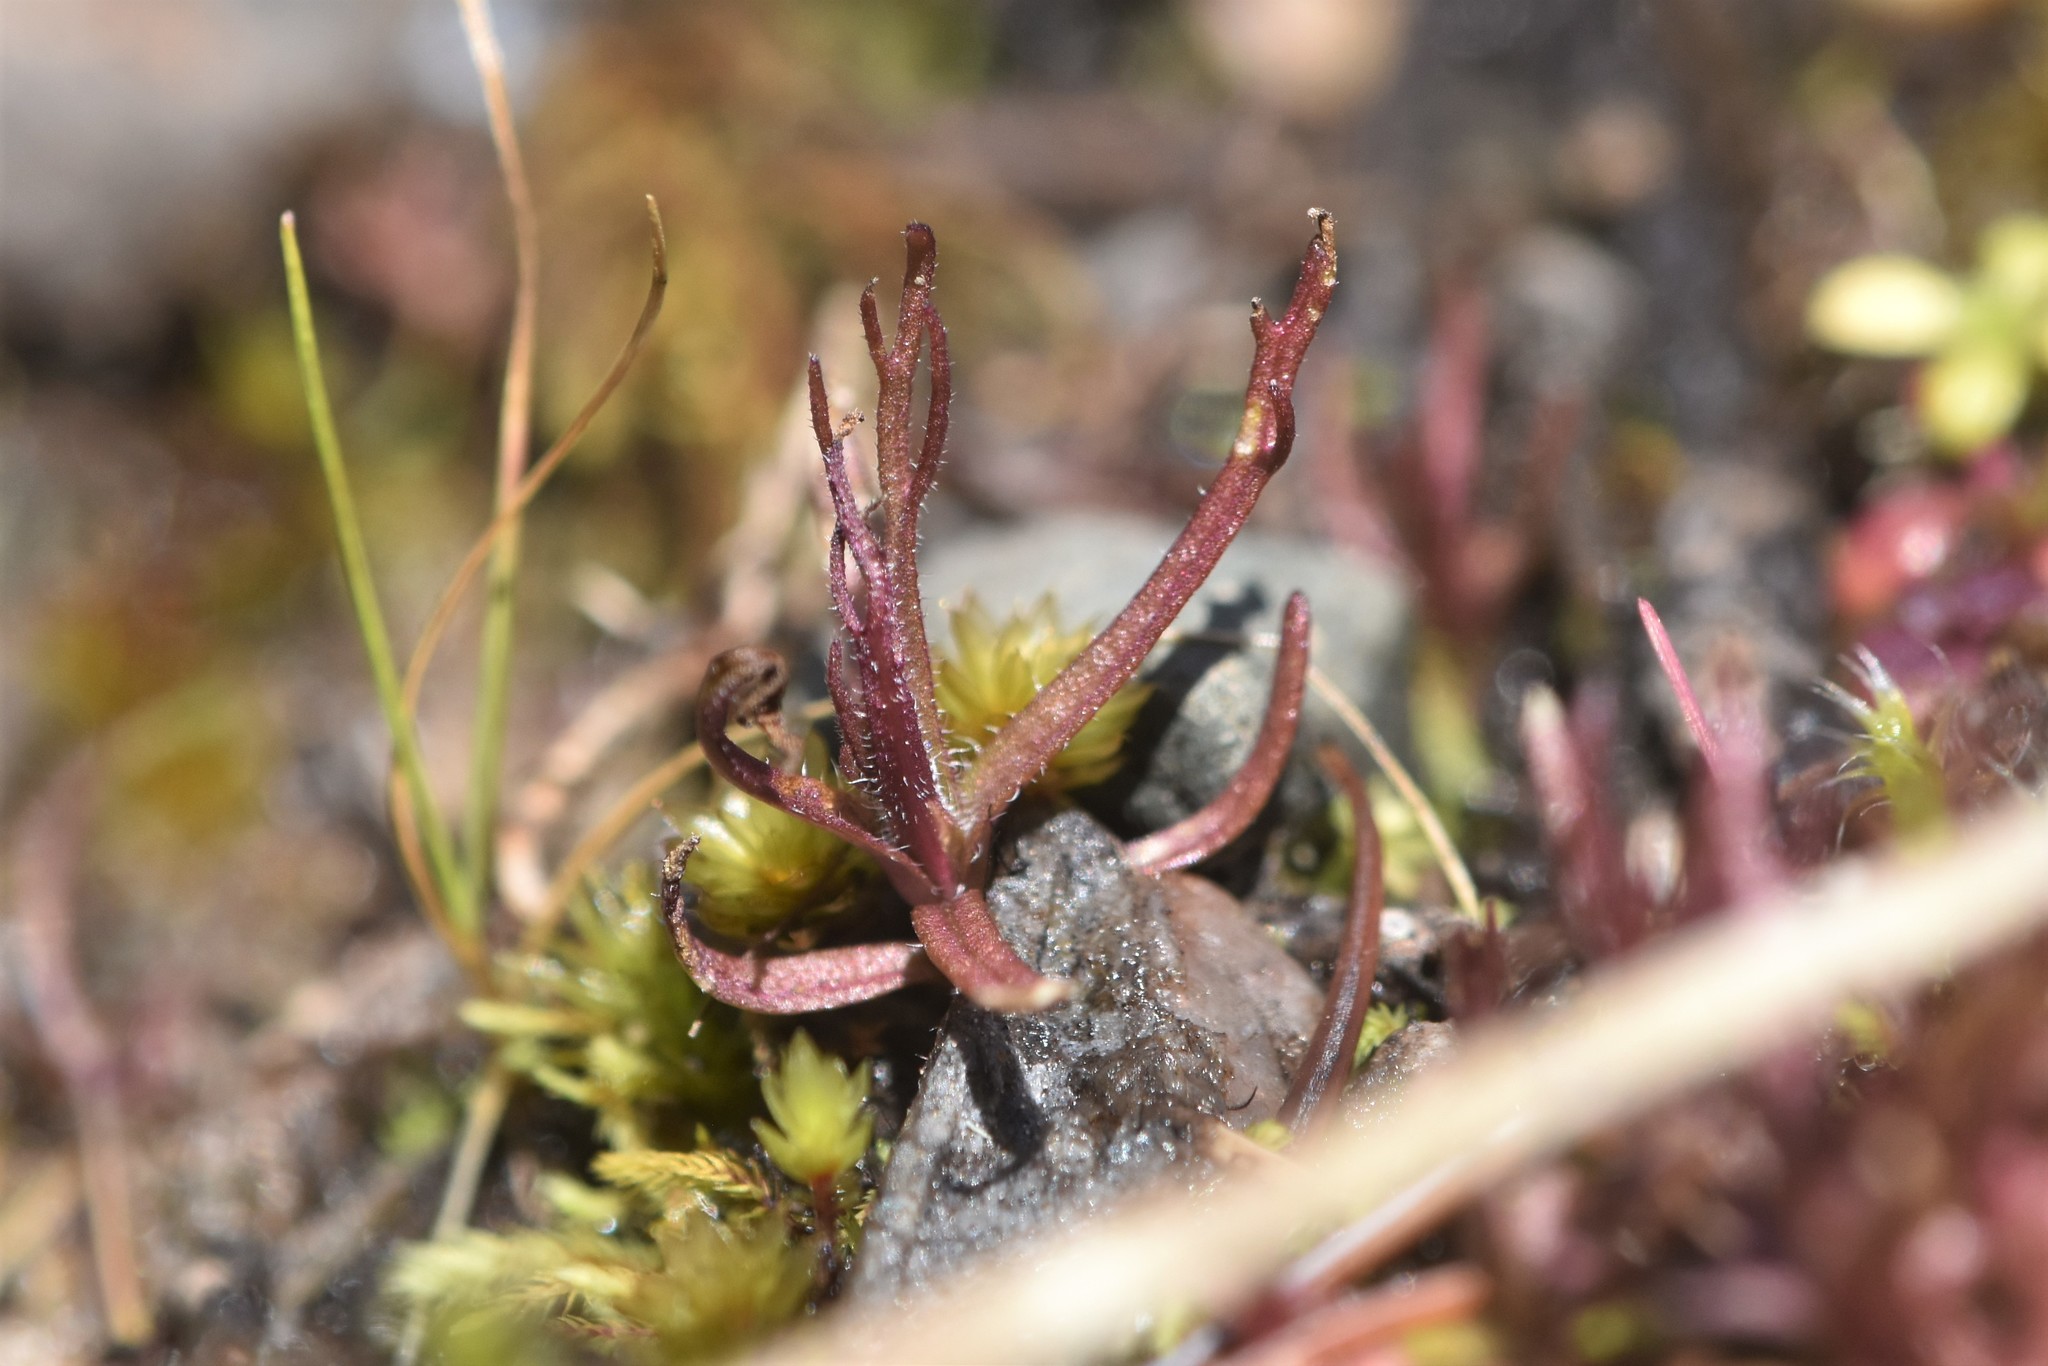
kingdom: Plantae
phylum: Tracheophyta
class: Magnoliopsida
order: Lamiales
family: Orobanchaceae
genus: Triphysaria
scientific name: Triphysaria pusilla
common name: Dwarf false owl-clover
